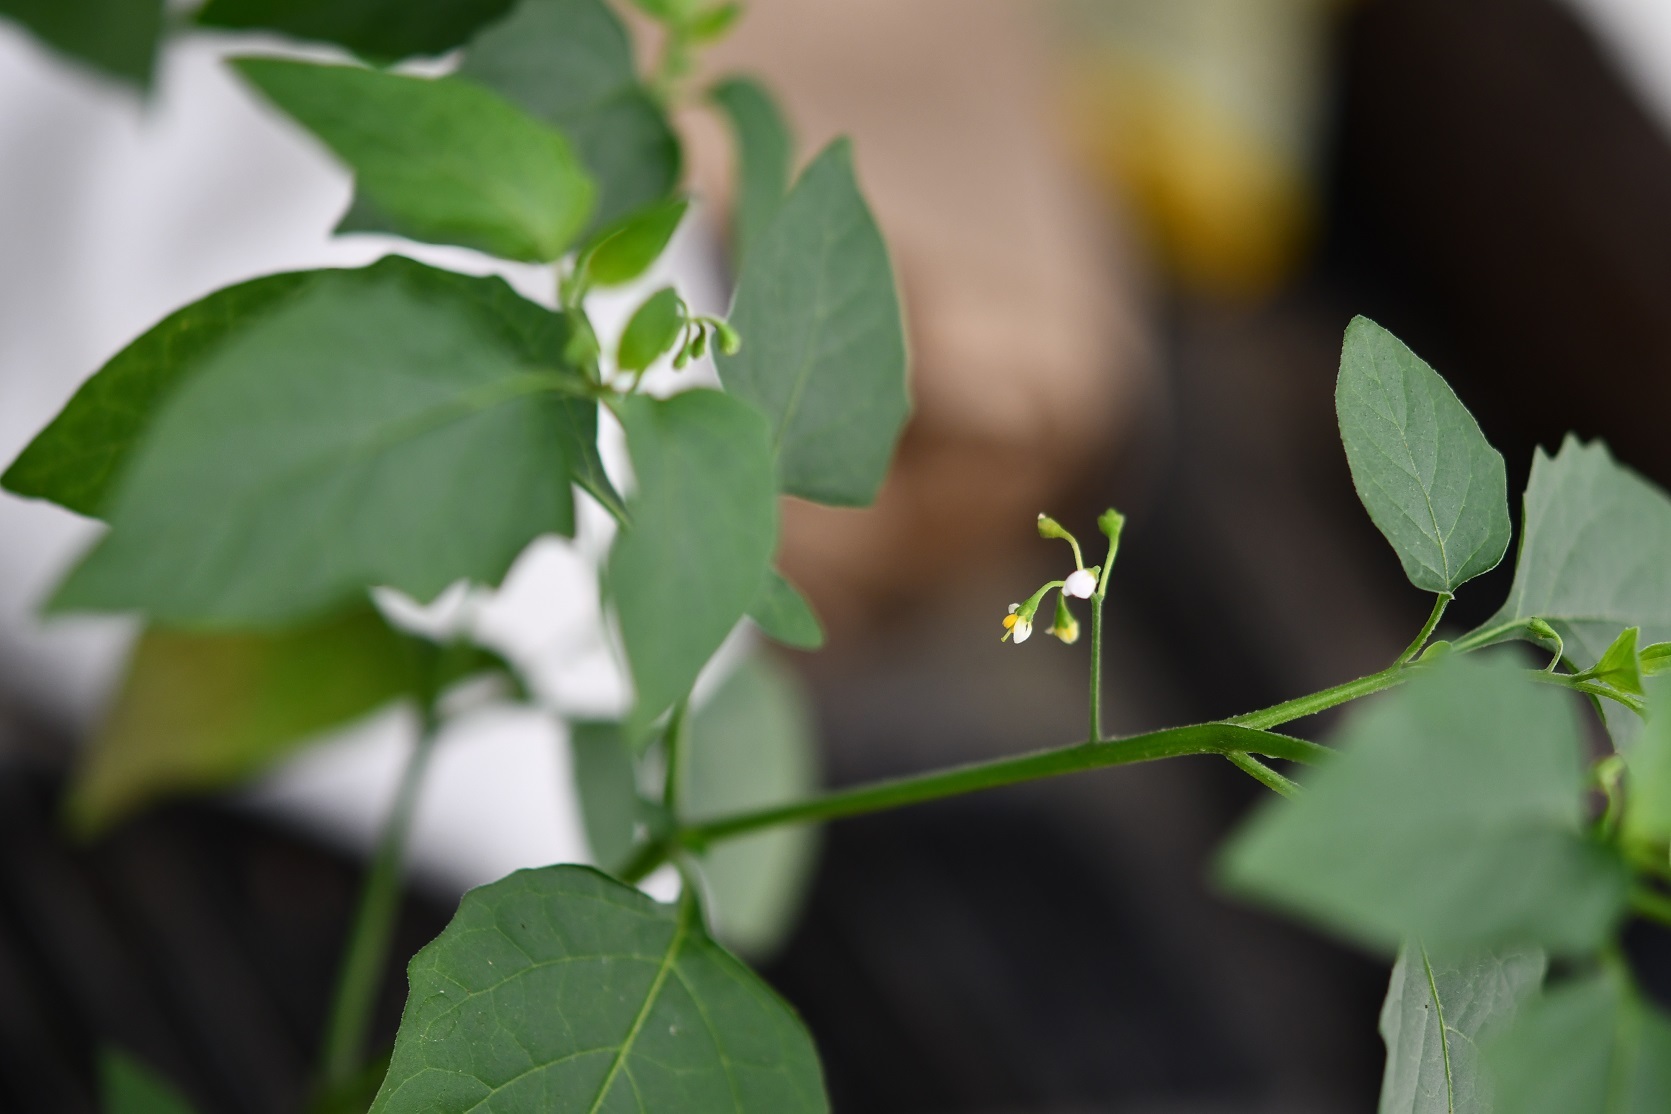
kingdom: Plantae
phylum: Tracheophyta
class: Magnoliopsida
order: Solanales
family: Solanaceae
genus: Solanum
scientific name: Solanum americanum
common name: American black nightshade
